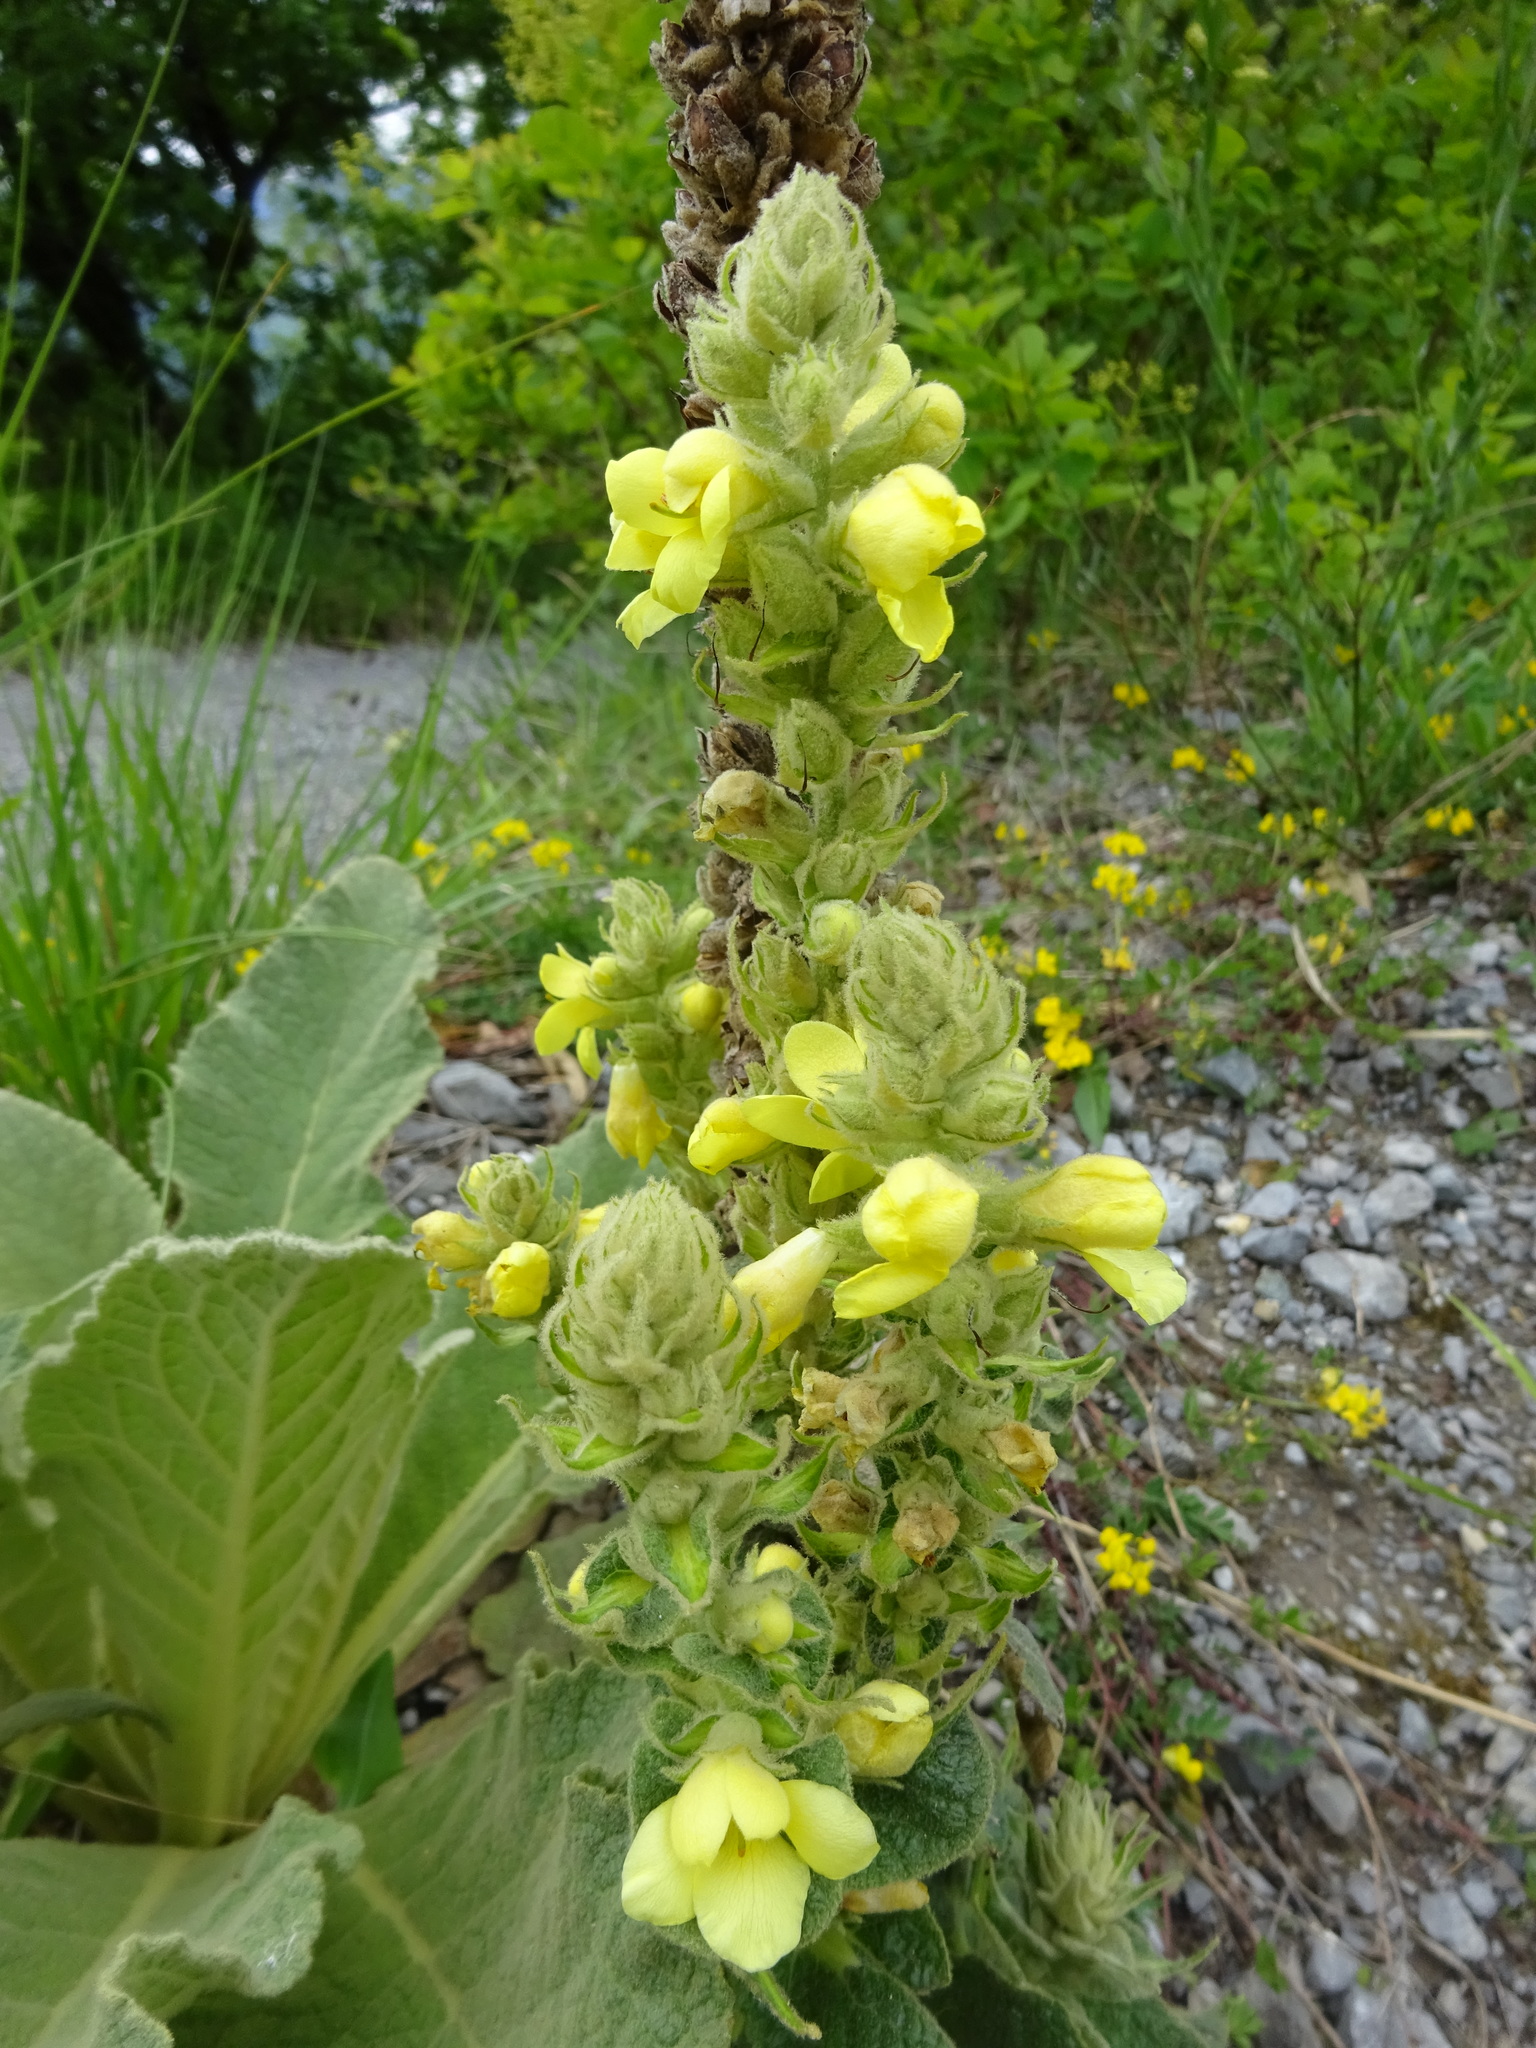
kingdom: Plantae
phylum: Tracheophyta
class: Magnoliopsida
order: Lamiales
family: Scrophulariaceae
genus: Verbascum
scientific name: Verbascum thapsus
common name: Common mullein
